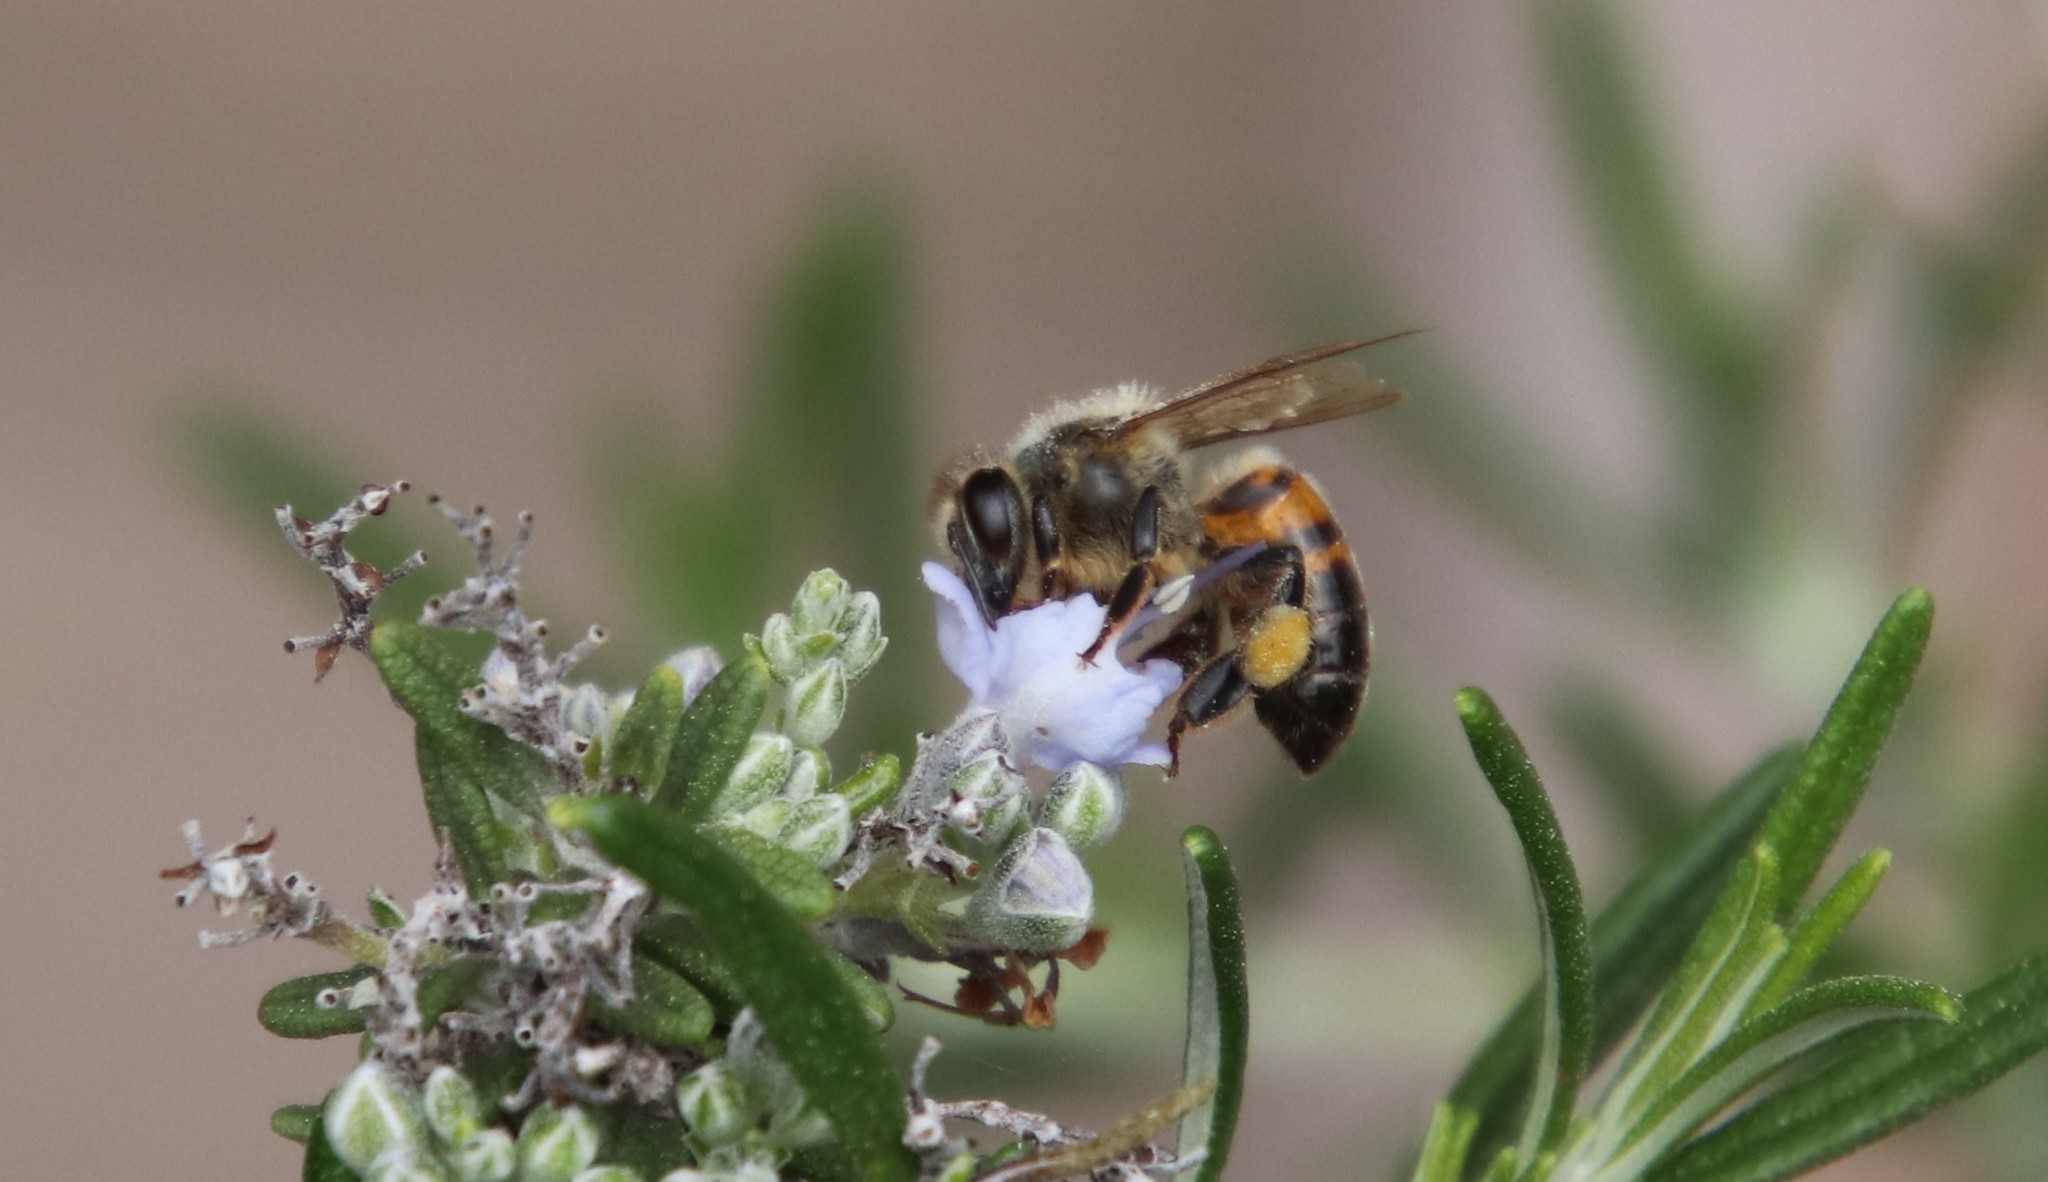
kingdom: Animalia
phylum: Arthropoda
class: Insecta
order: Hymenoptera
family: Apidae
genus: Apis
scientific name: Apis mellifera
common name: Honey bee
